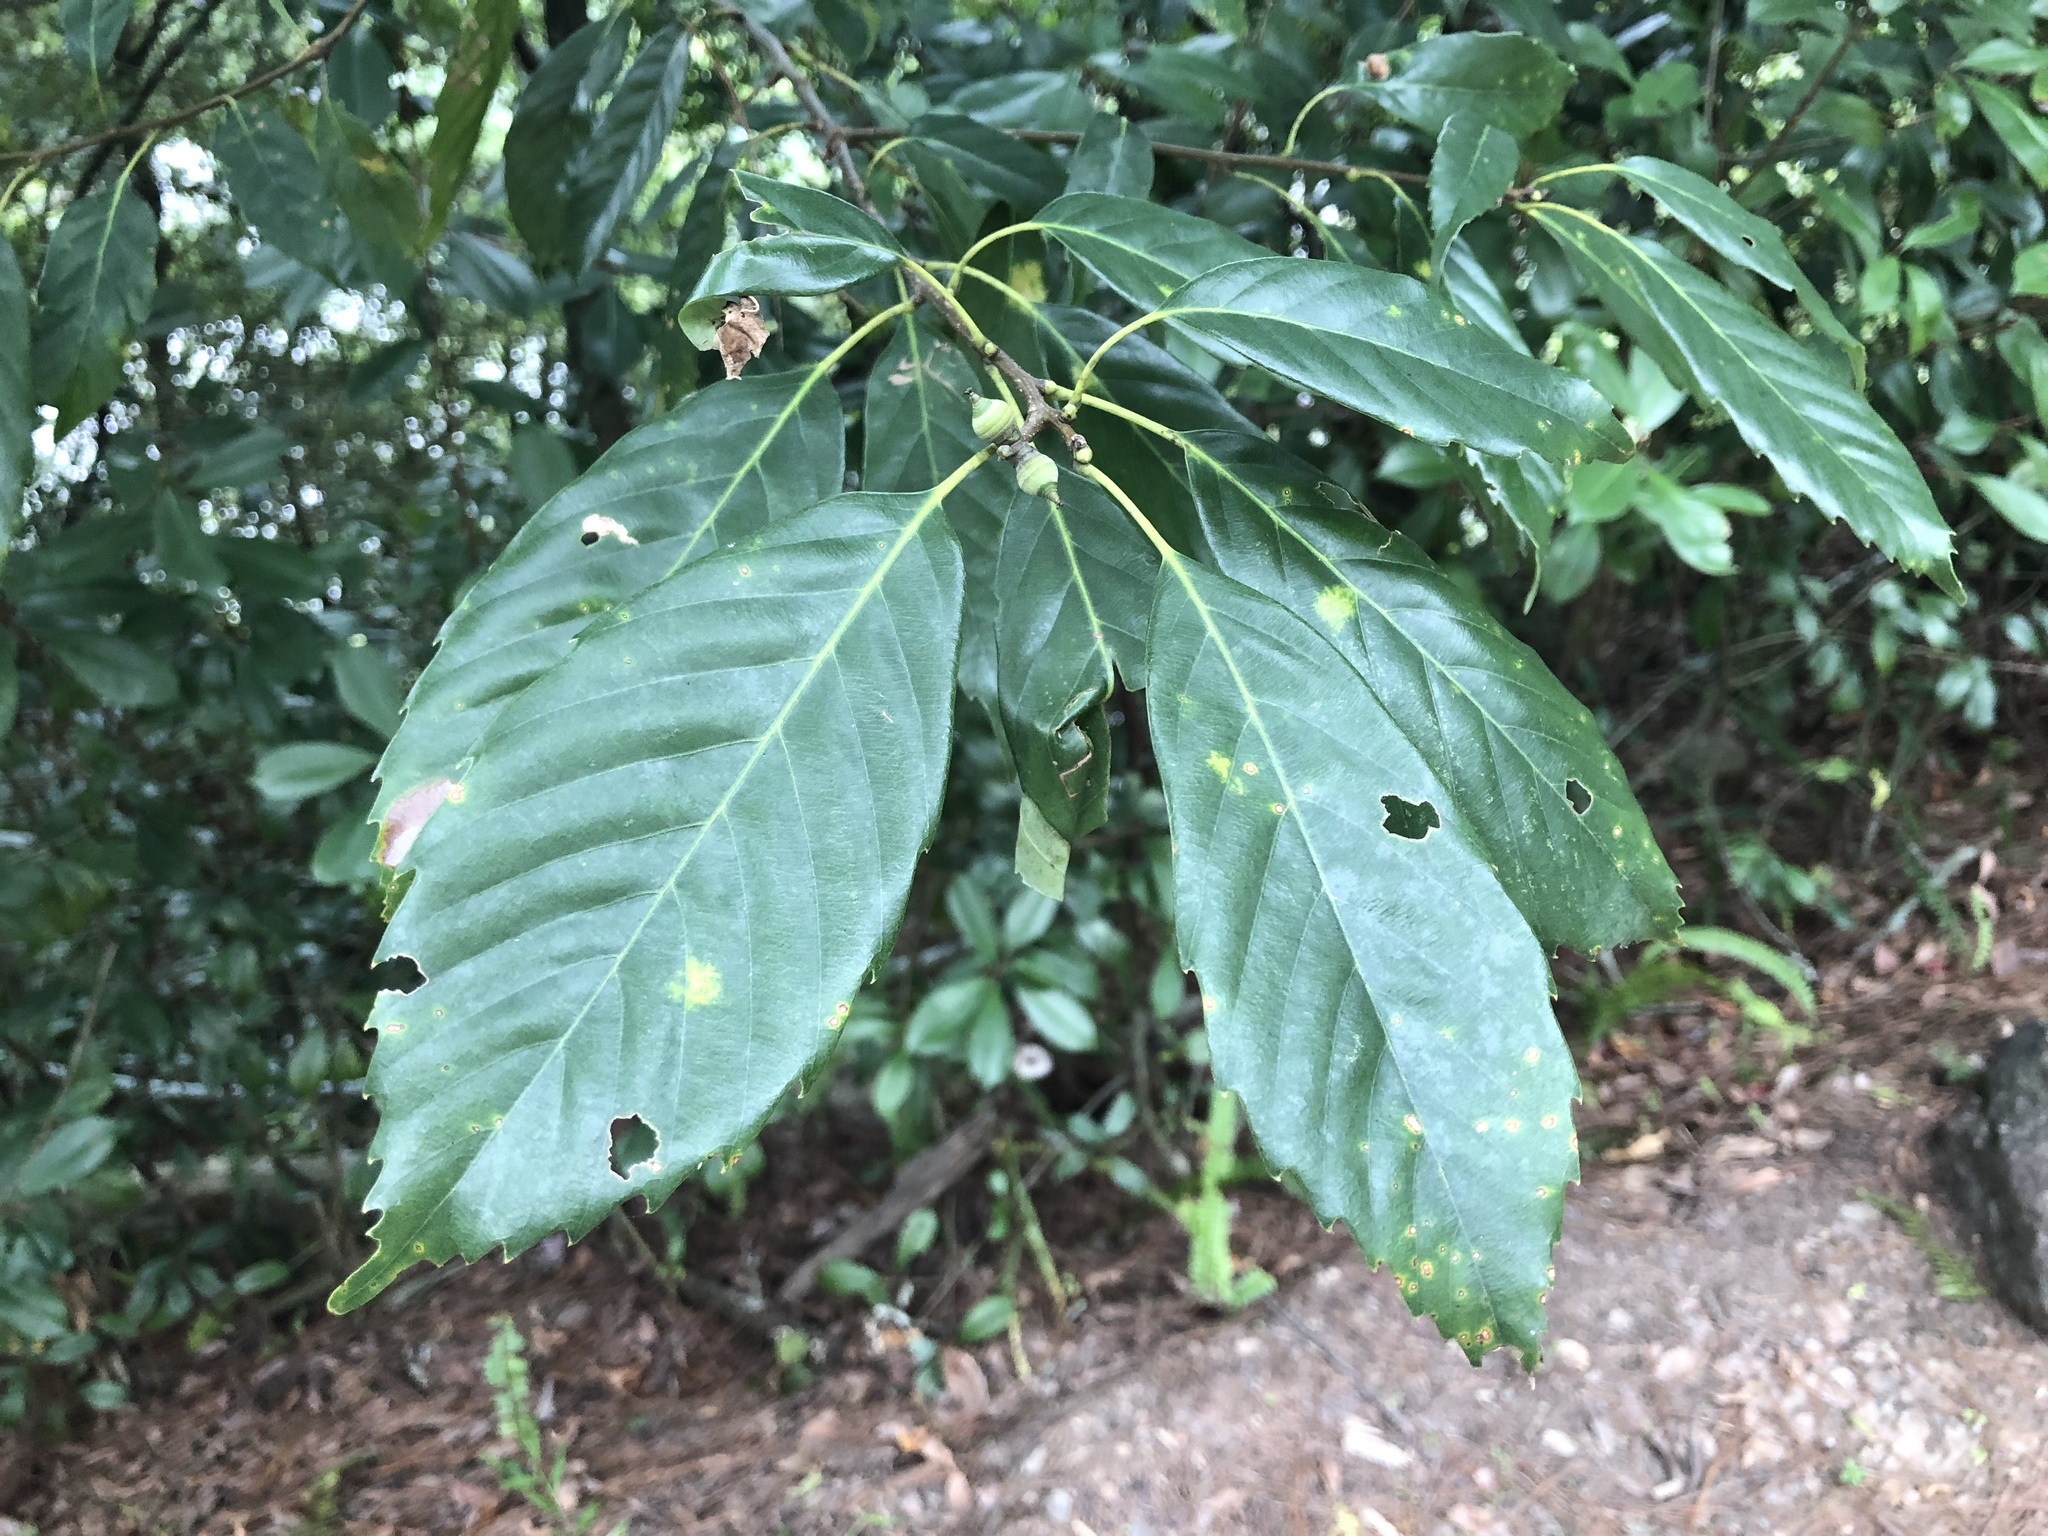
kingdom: Plantae
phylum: Tracheophyta
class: Magnoliopsida
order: Fagales
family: Fagaceae
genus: Quercus
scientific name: Quercus glauca
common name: Ring-cup oak
